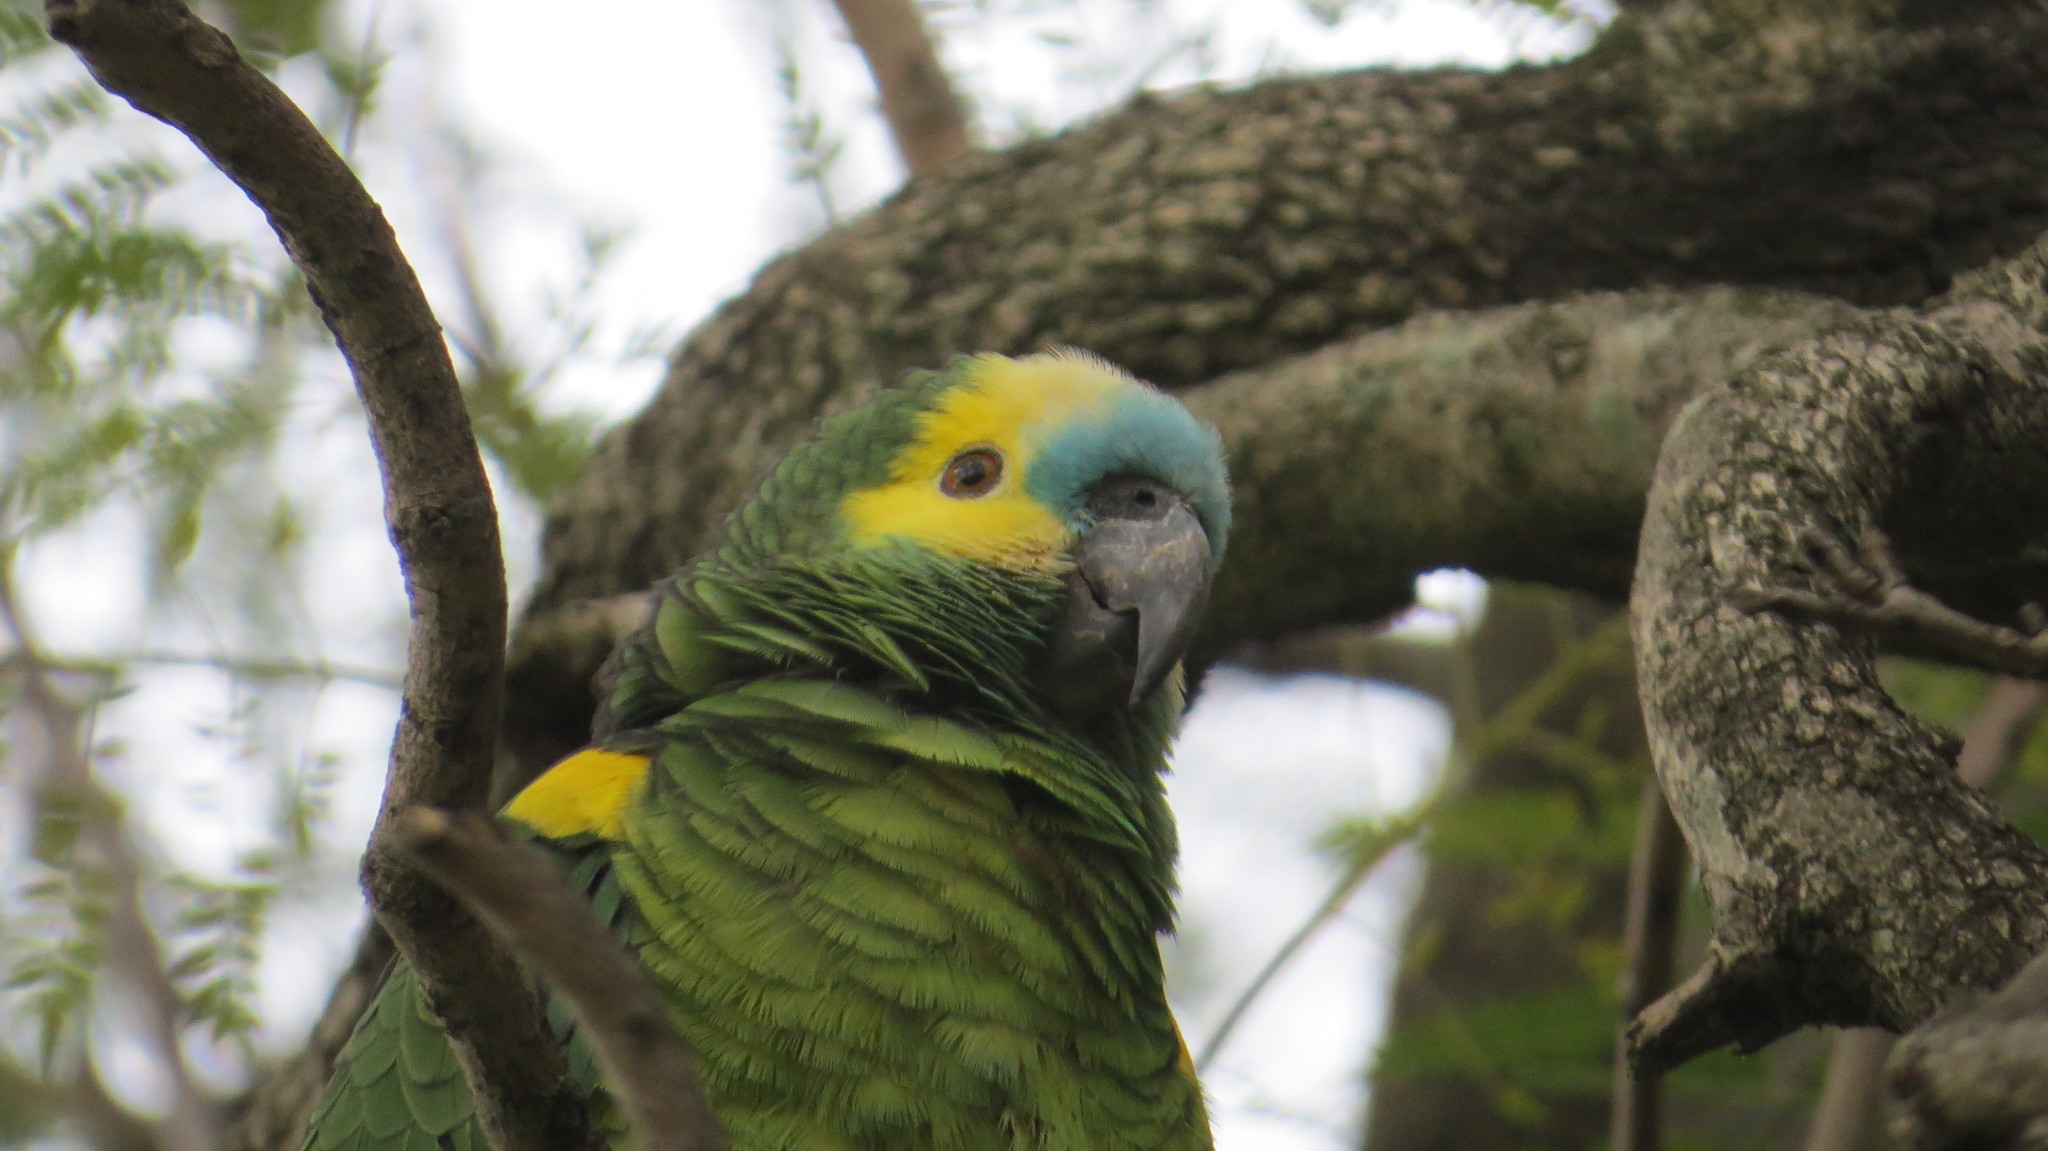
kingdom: Animalia
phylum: Chordata
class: Aves
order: Psittaciformes
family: Psittacidae
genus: Amazona
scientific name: Amazona aestiva
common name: Turquoise-fronted amazon
